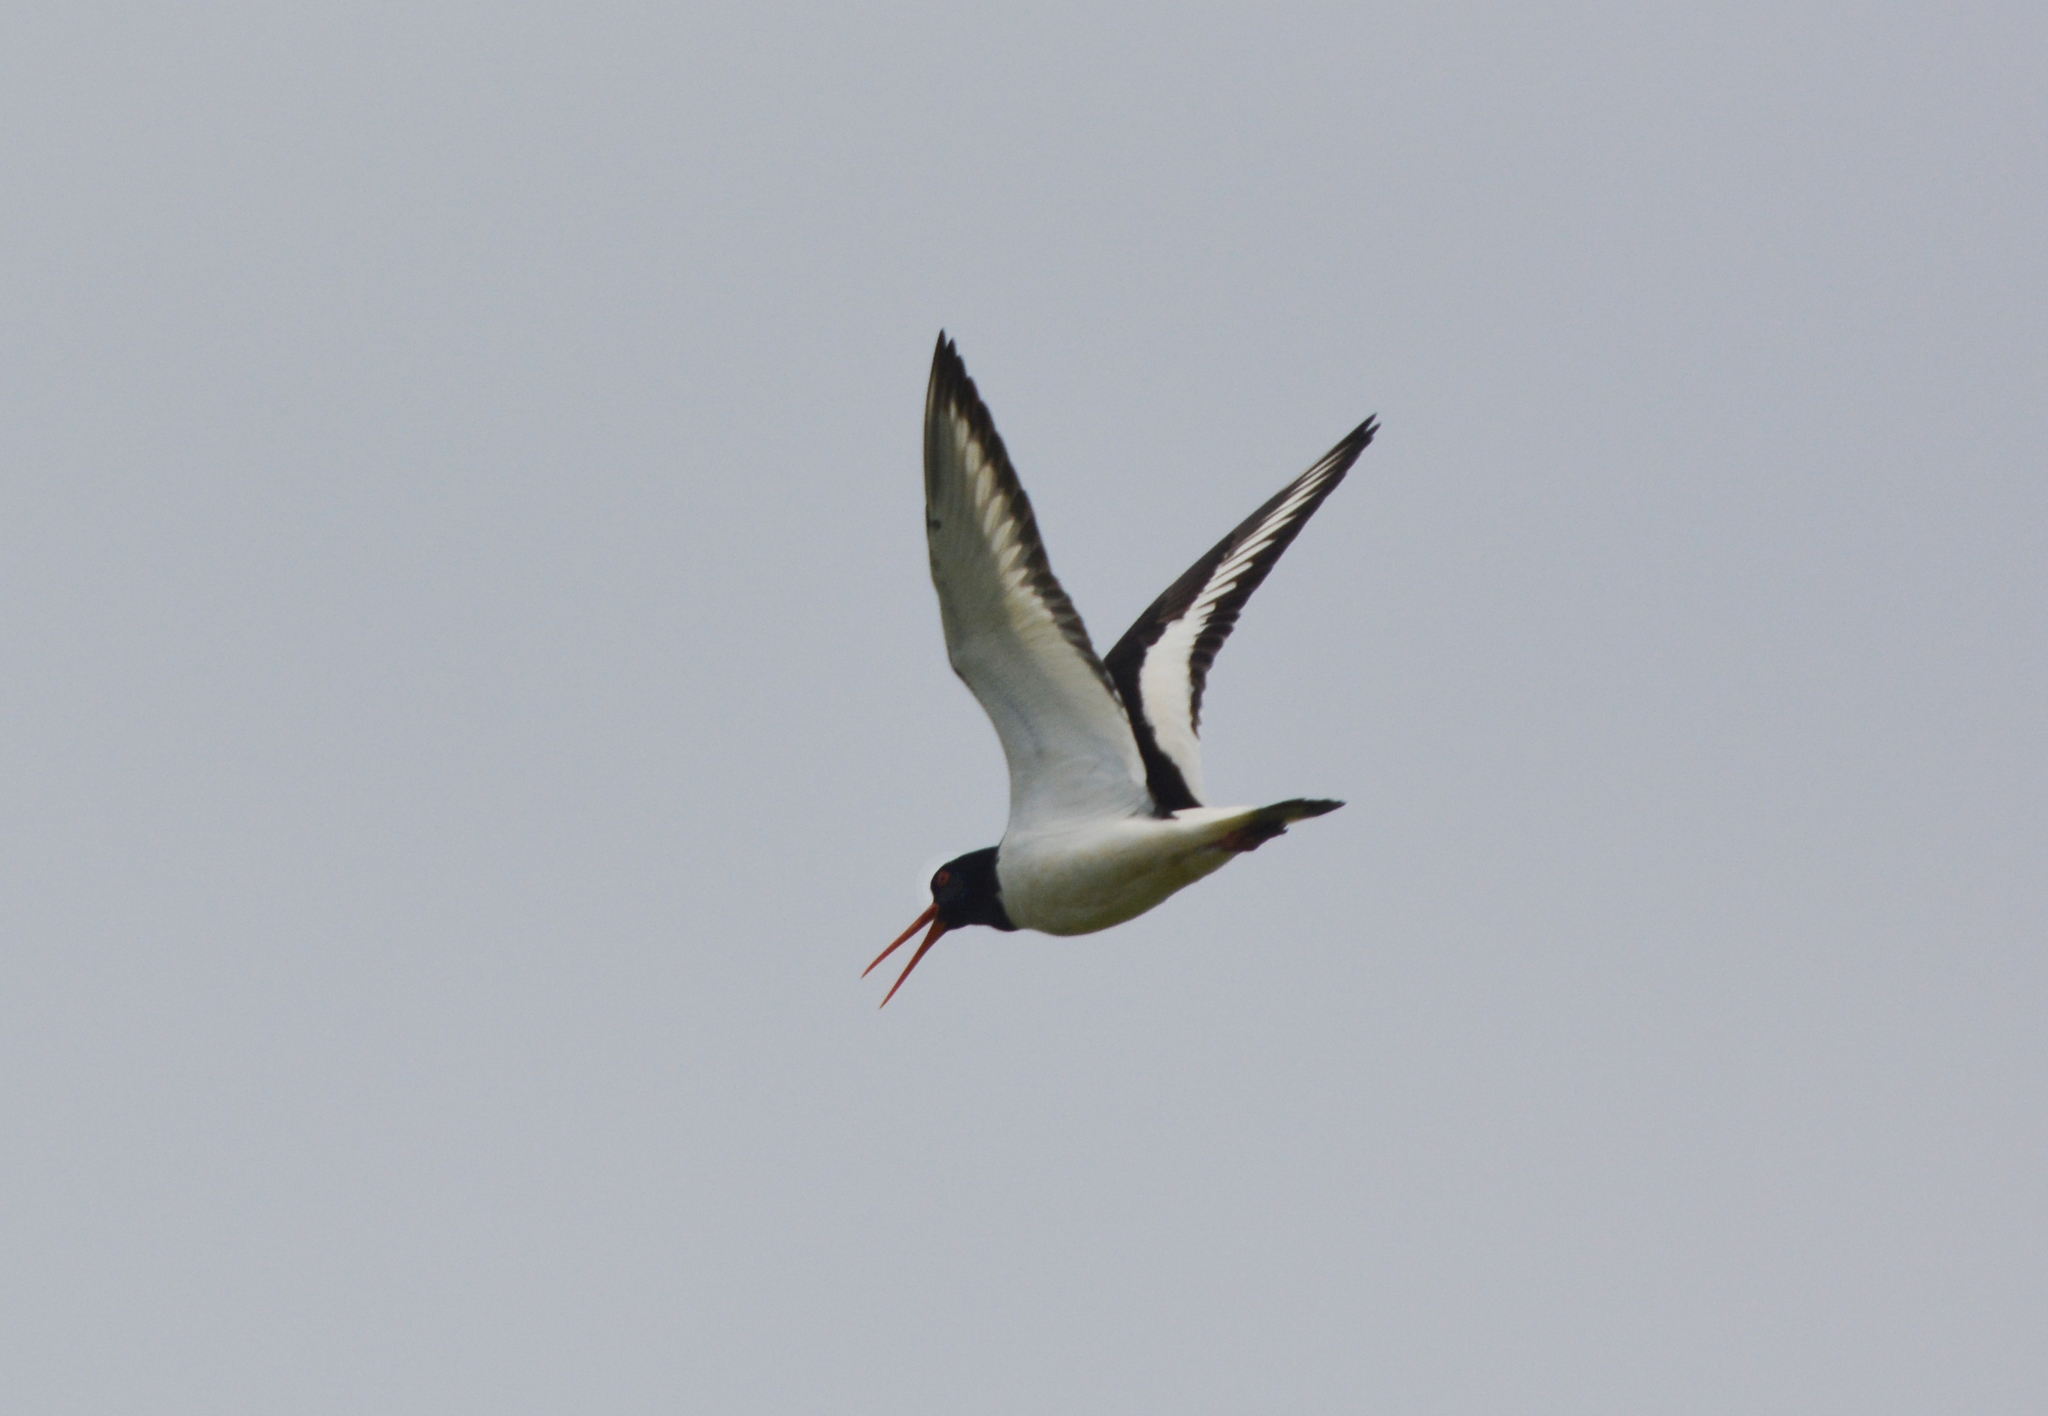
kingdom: Animalia
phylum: Chordata
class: Aves
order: Charadriiformes
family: Haematopodidae
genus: Haematopus
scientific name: Haematopus ostralegus
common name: Eurasian oystercatcher
